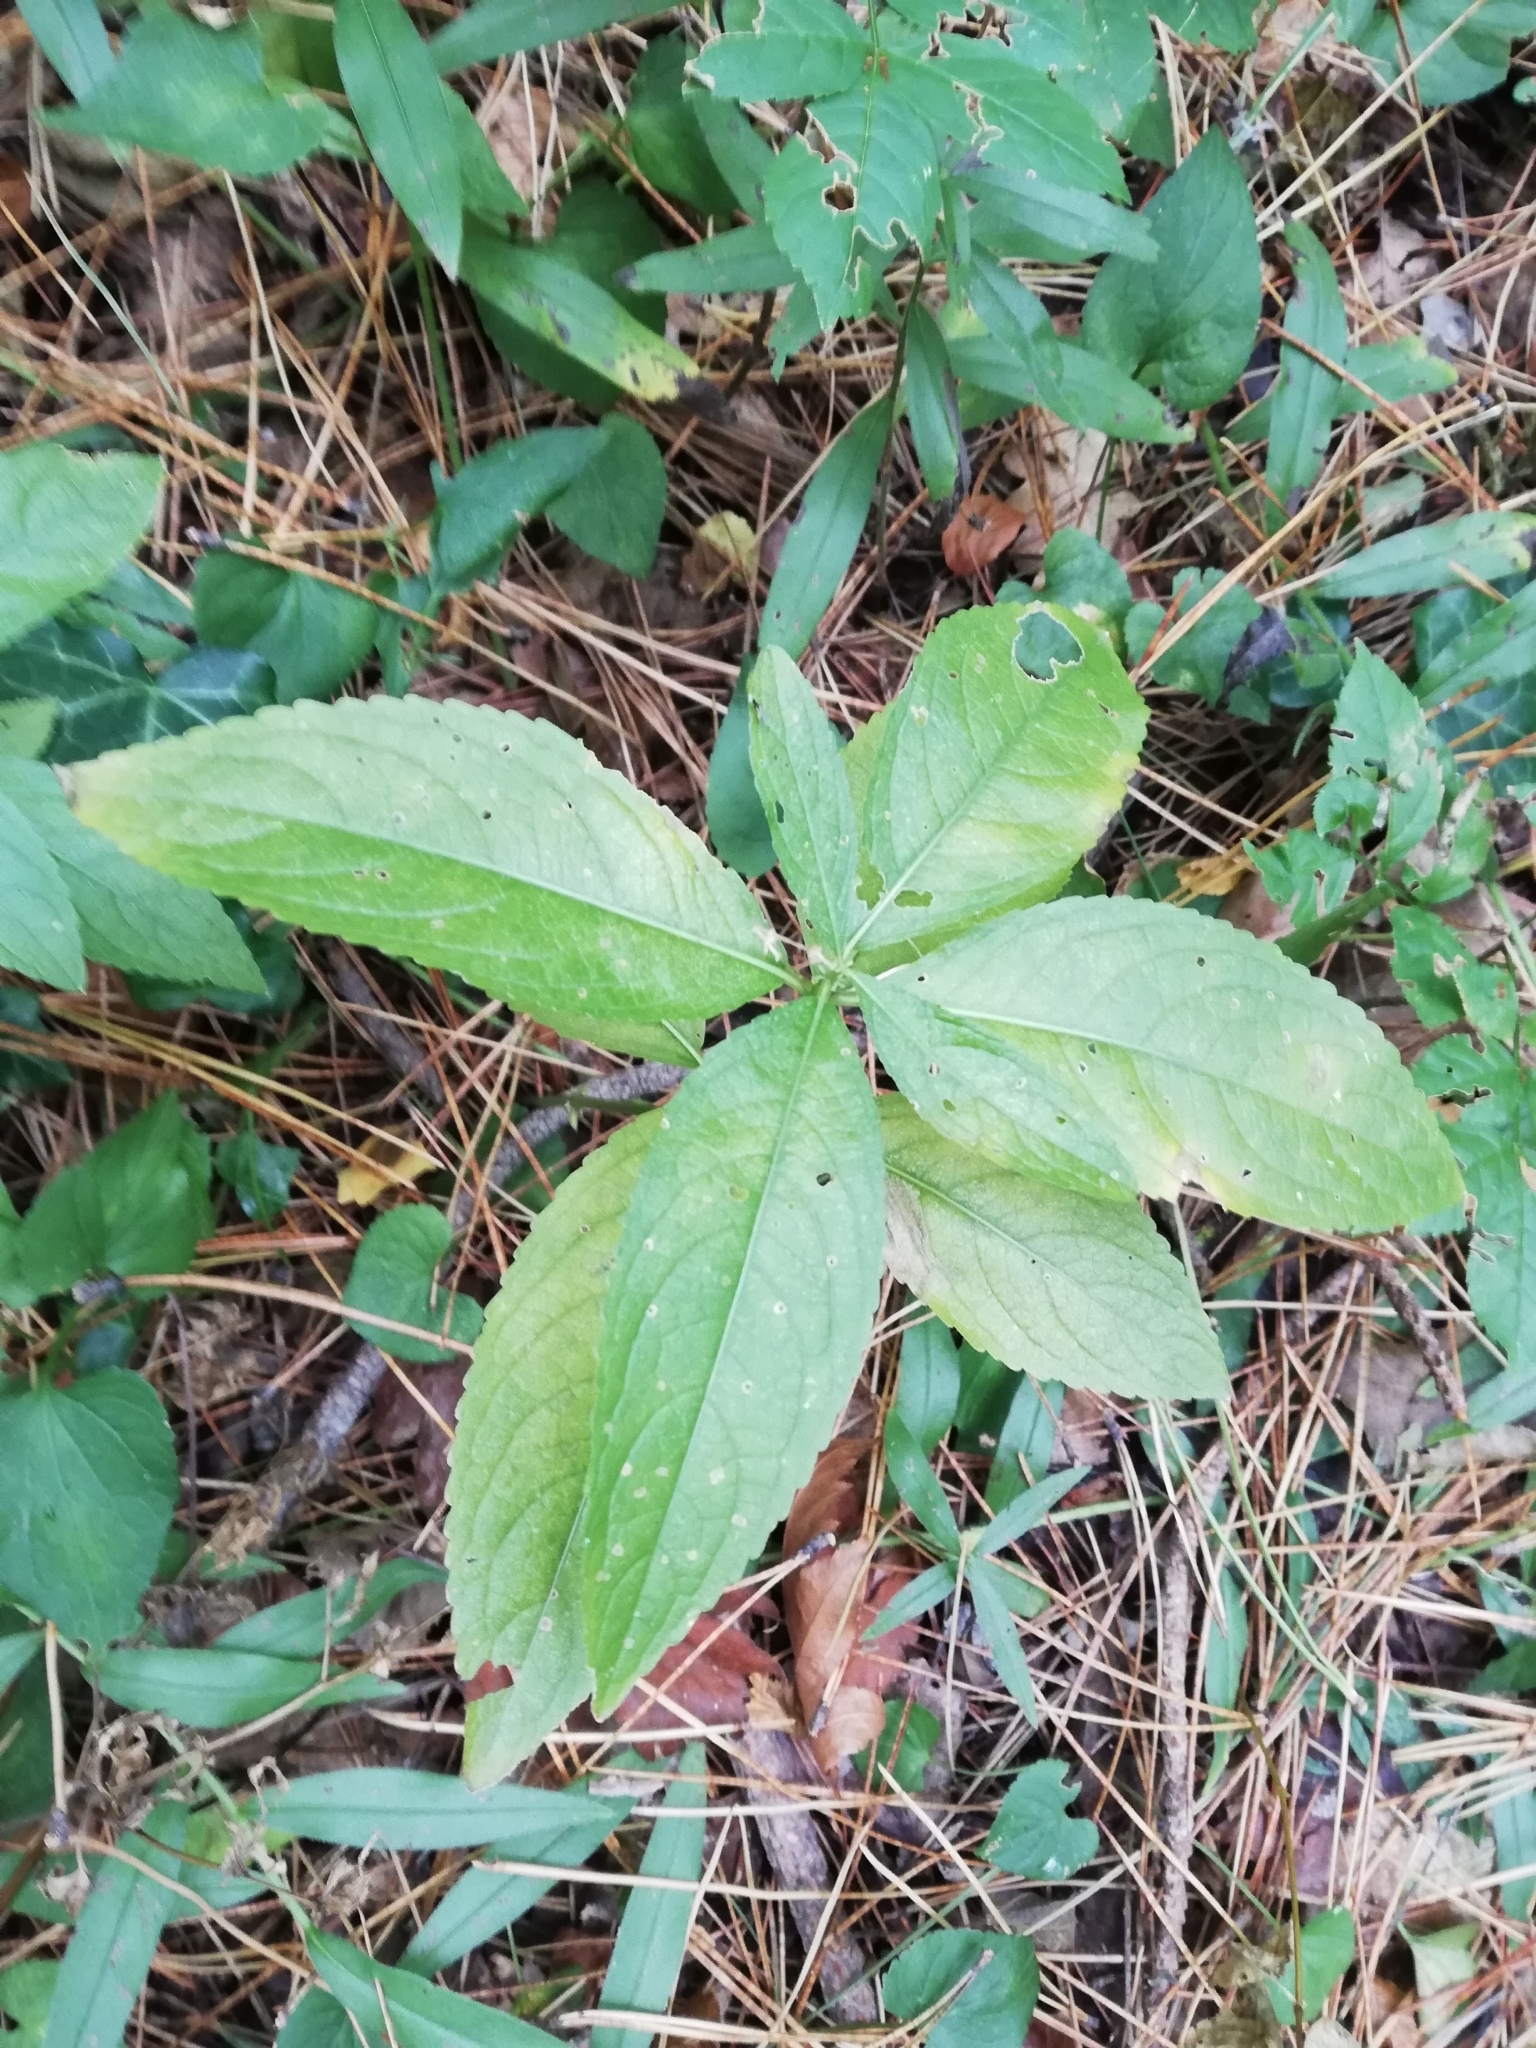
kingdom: Plantae
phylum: Tracheophyta
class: Magnoliopsida
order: Malpighiales
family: Euphorbiaceae
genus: Mercurialis
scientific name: Mercurialis perennis
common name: Dog mercury
